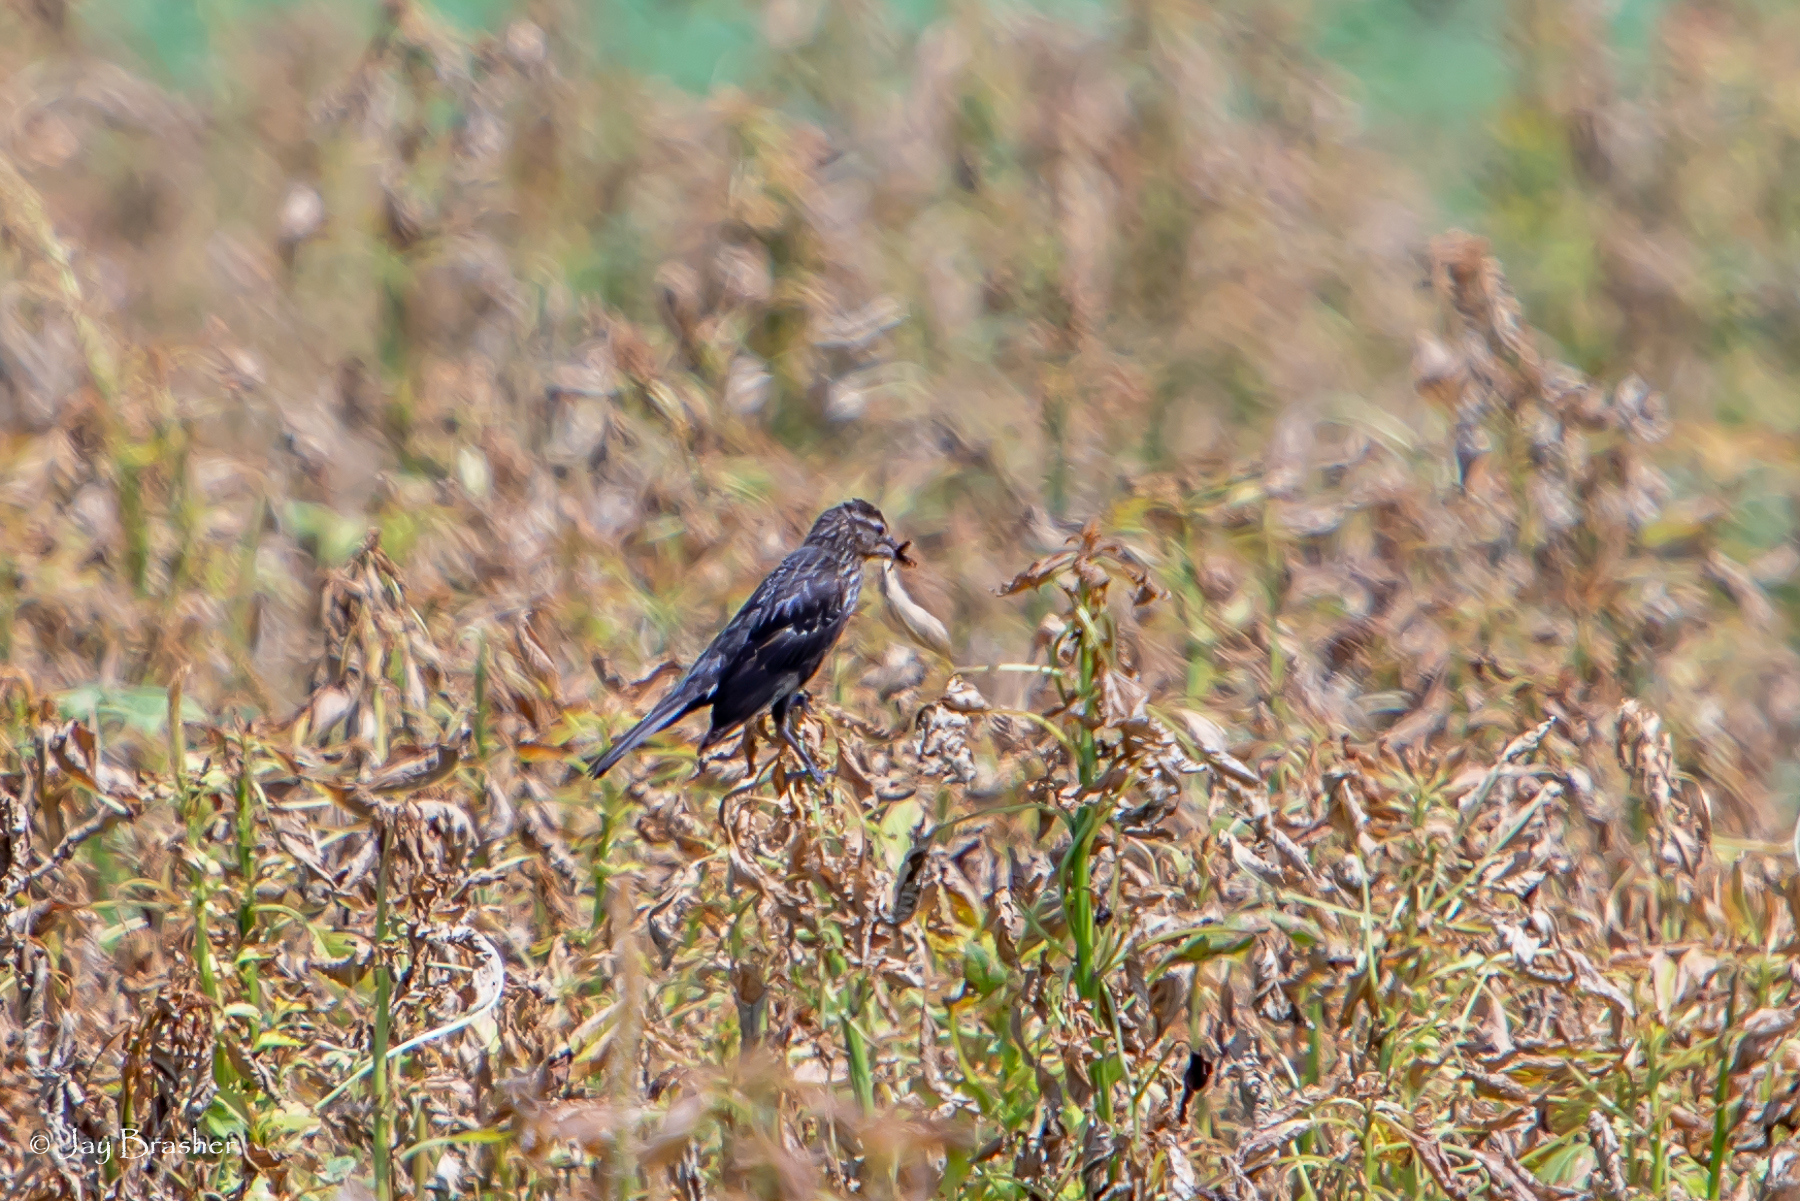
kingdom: Animalia
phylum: Chordata
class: Aves
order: Passeriformes
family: Icteridae
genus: Agelaius
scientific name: Agelaius phoeniceus
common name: Red-winged blackbird
